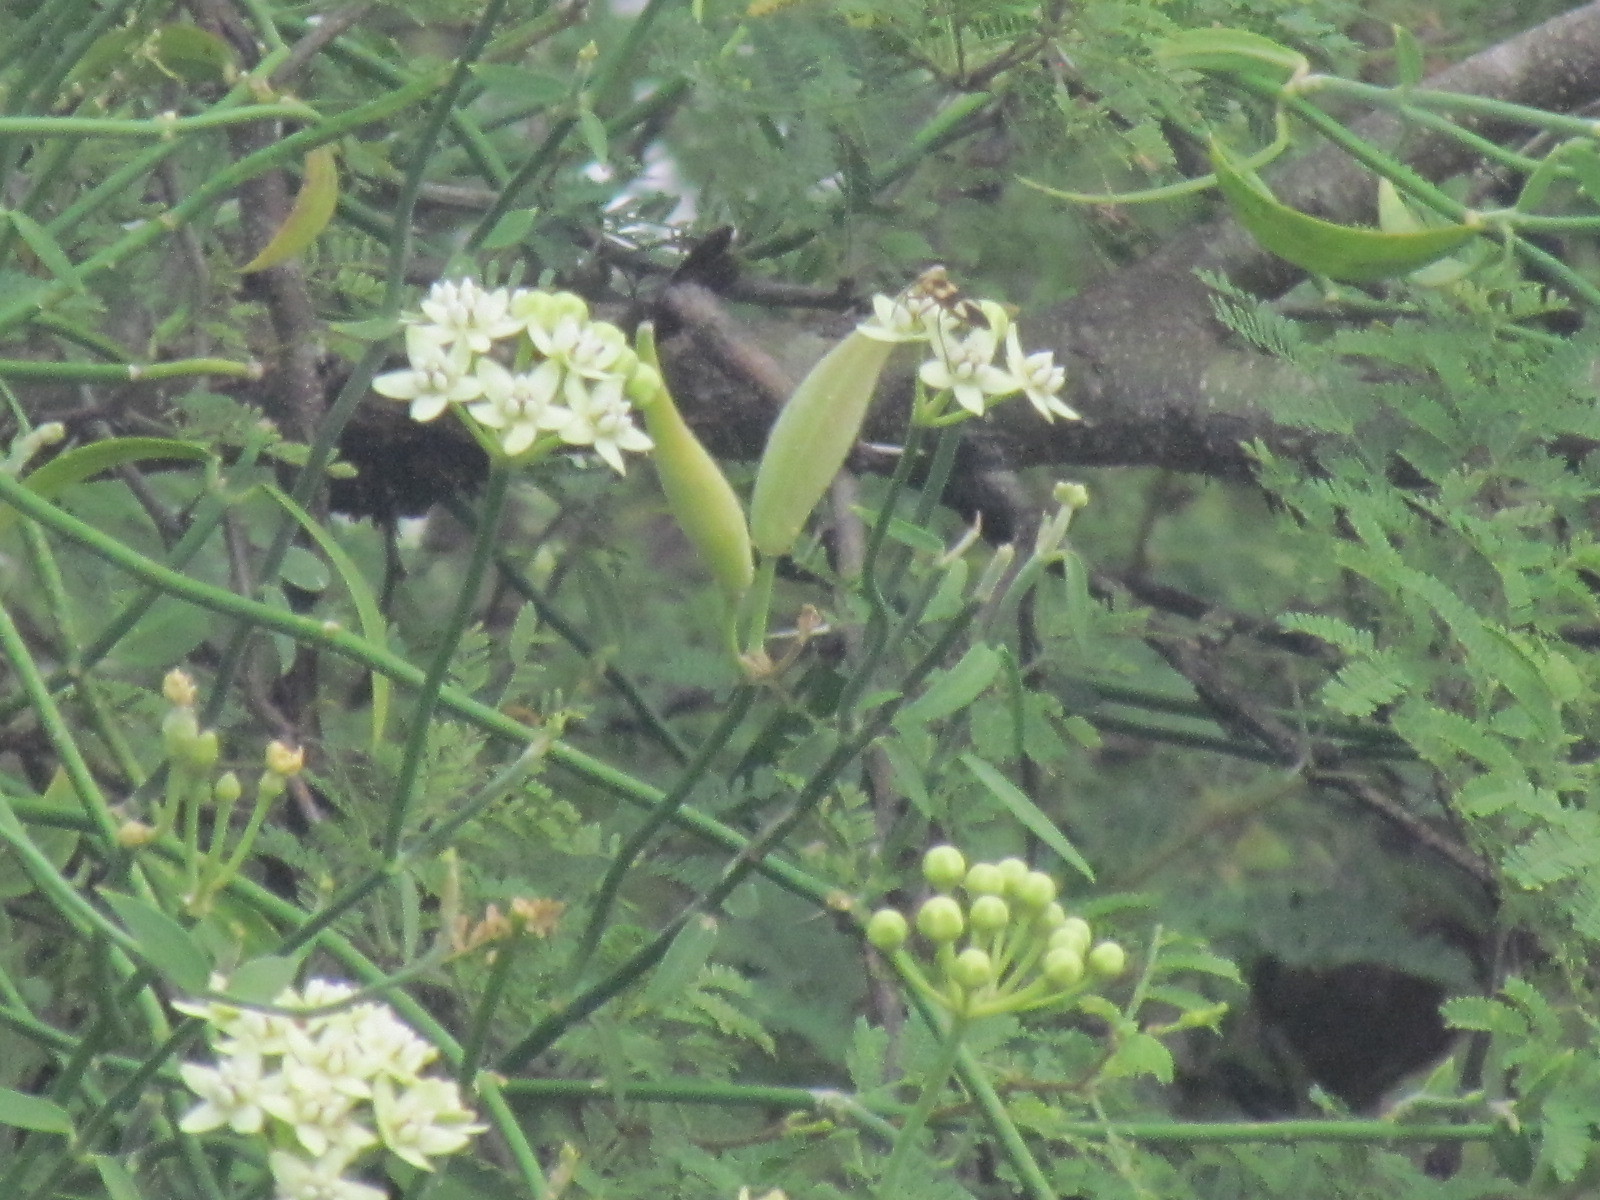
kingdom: Plantae
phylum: Tracheophyta
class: Magnoliopsida
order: Gentianales
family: Apocynaceae
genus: Funastrum
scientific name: Funastrum clausum
